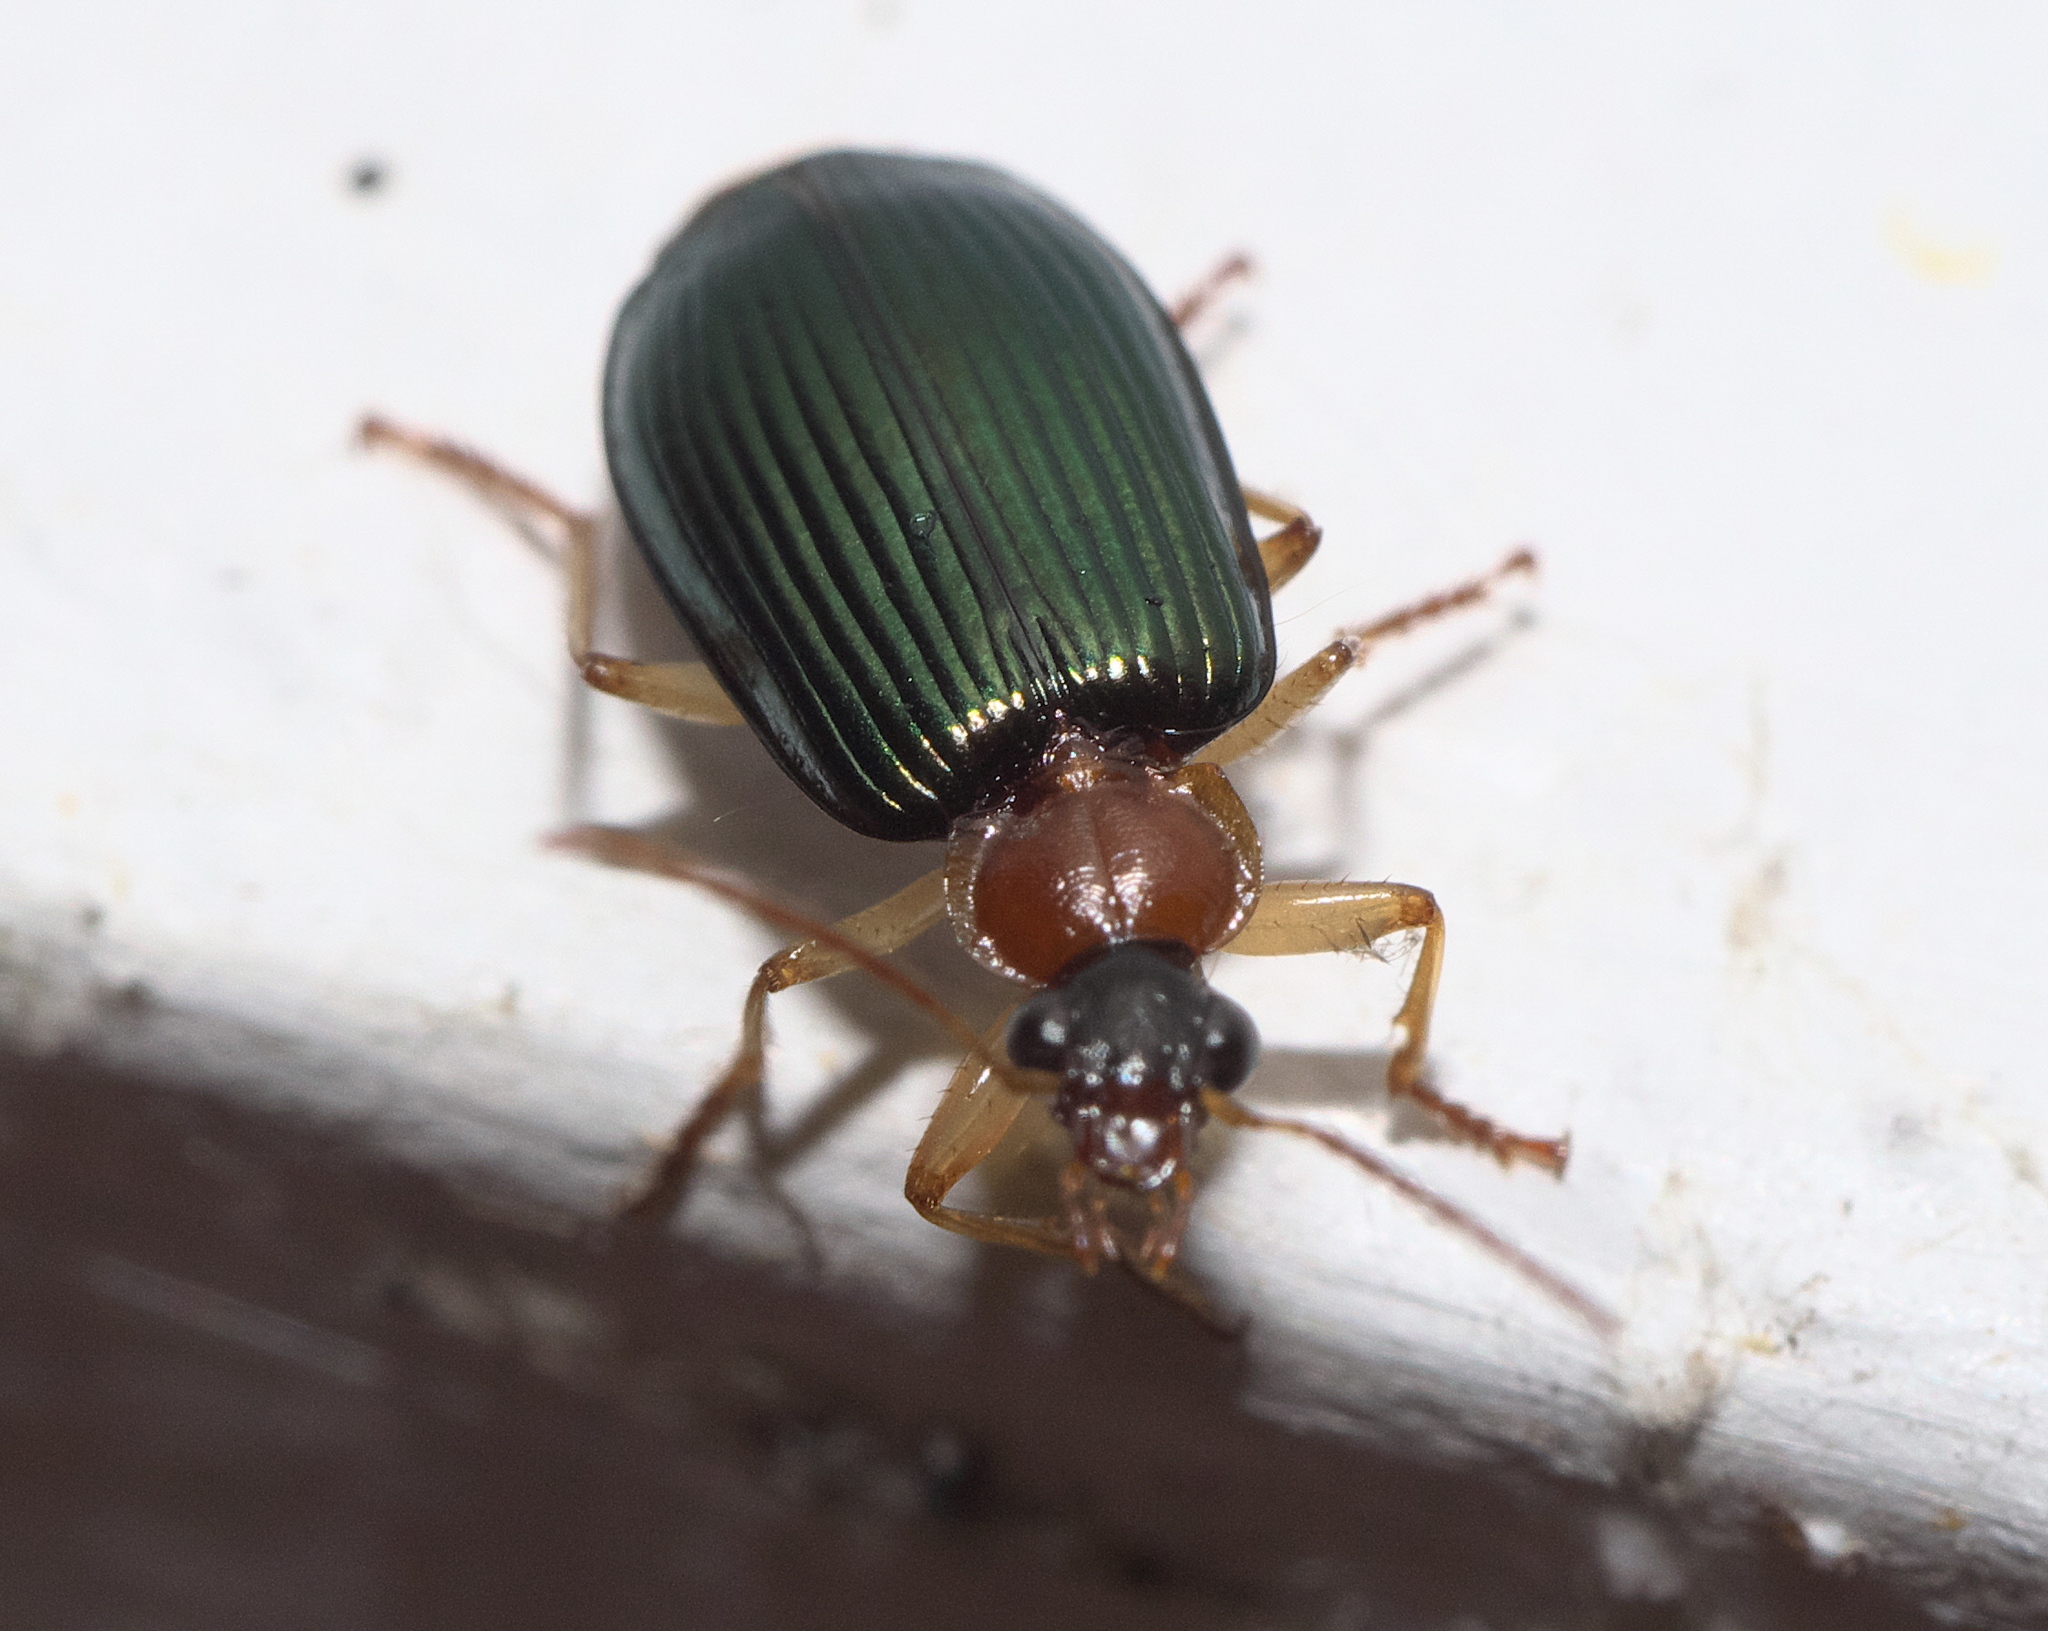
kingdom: Animalia
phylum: Arthropoda
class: Insecta
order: Coleoptera
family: Carabidae
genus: Lebia
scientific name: Lebia tricolor
